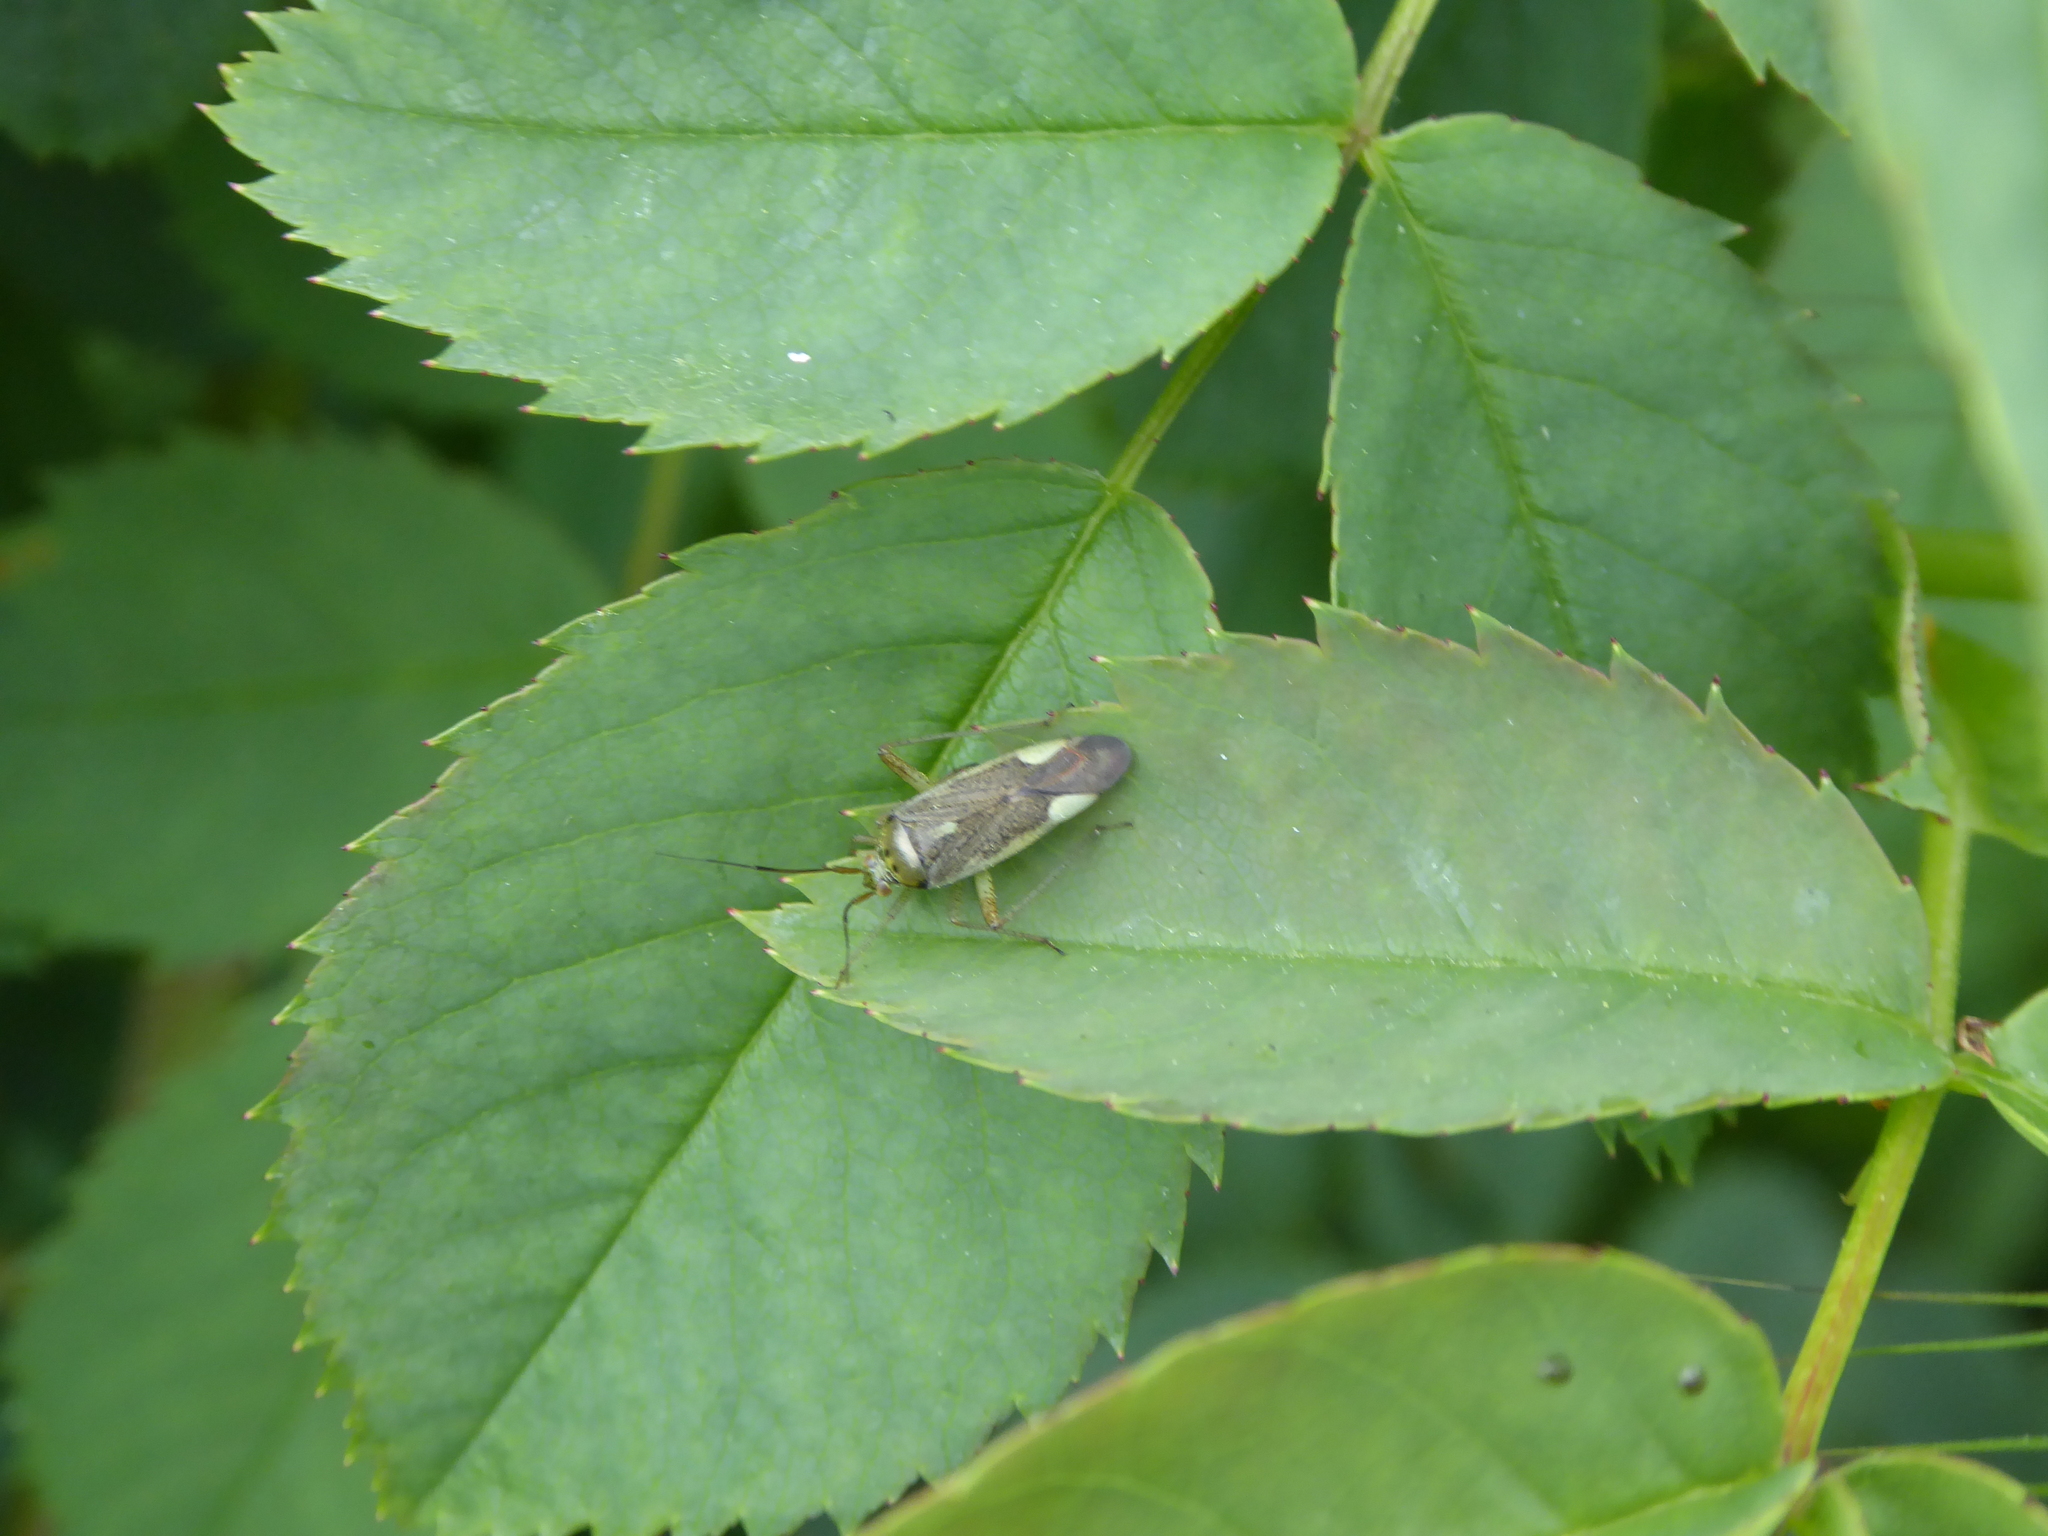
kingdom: Animalia
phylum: Arthropoda
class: Insecta
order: Hemiptera
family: Miridae
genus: Closterotomus
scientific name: Closterotomus trivialis
